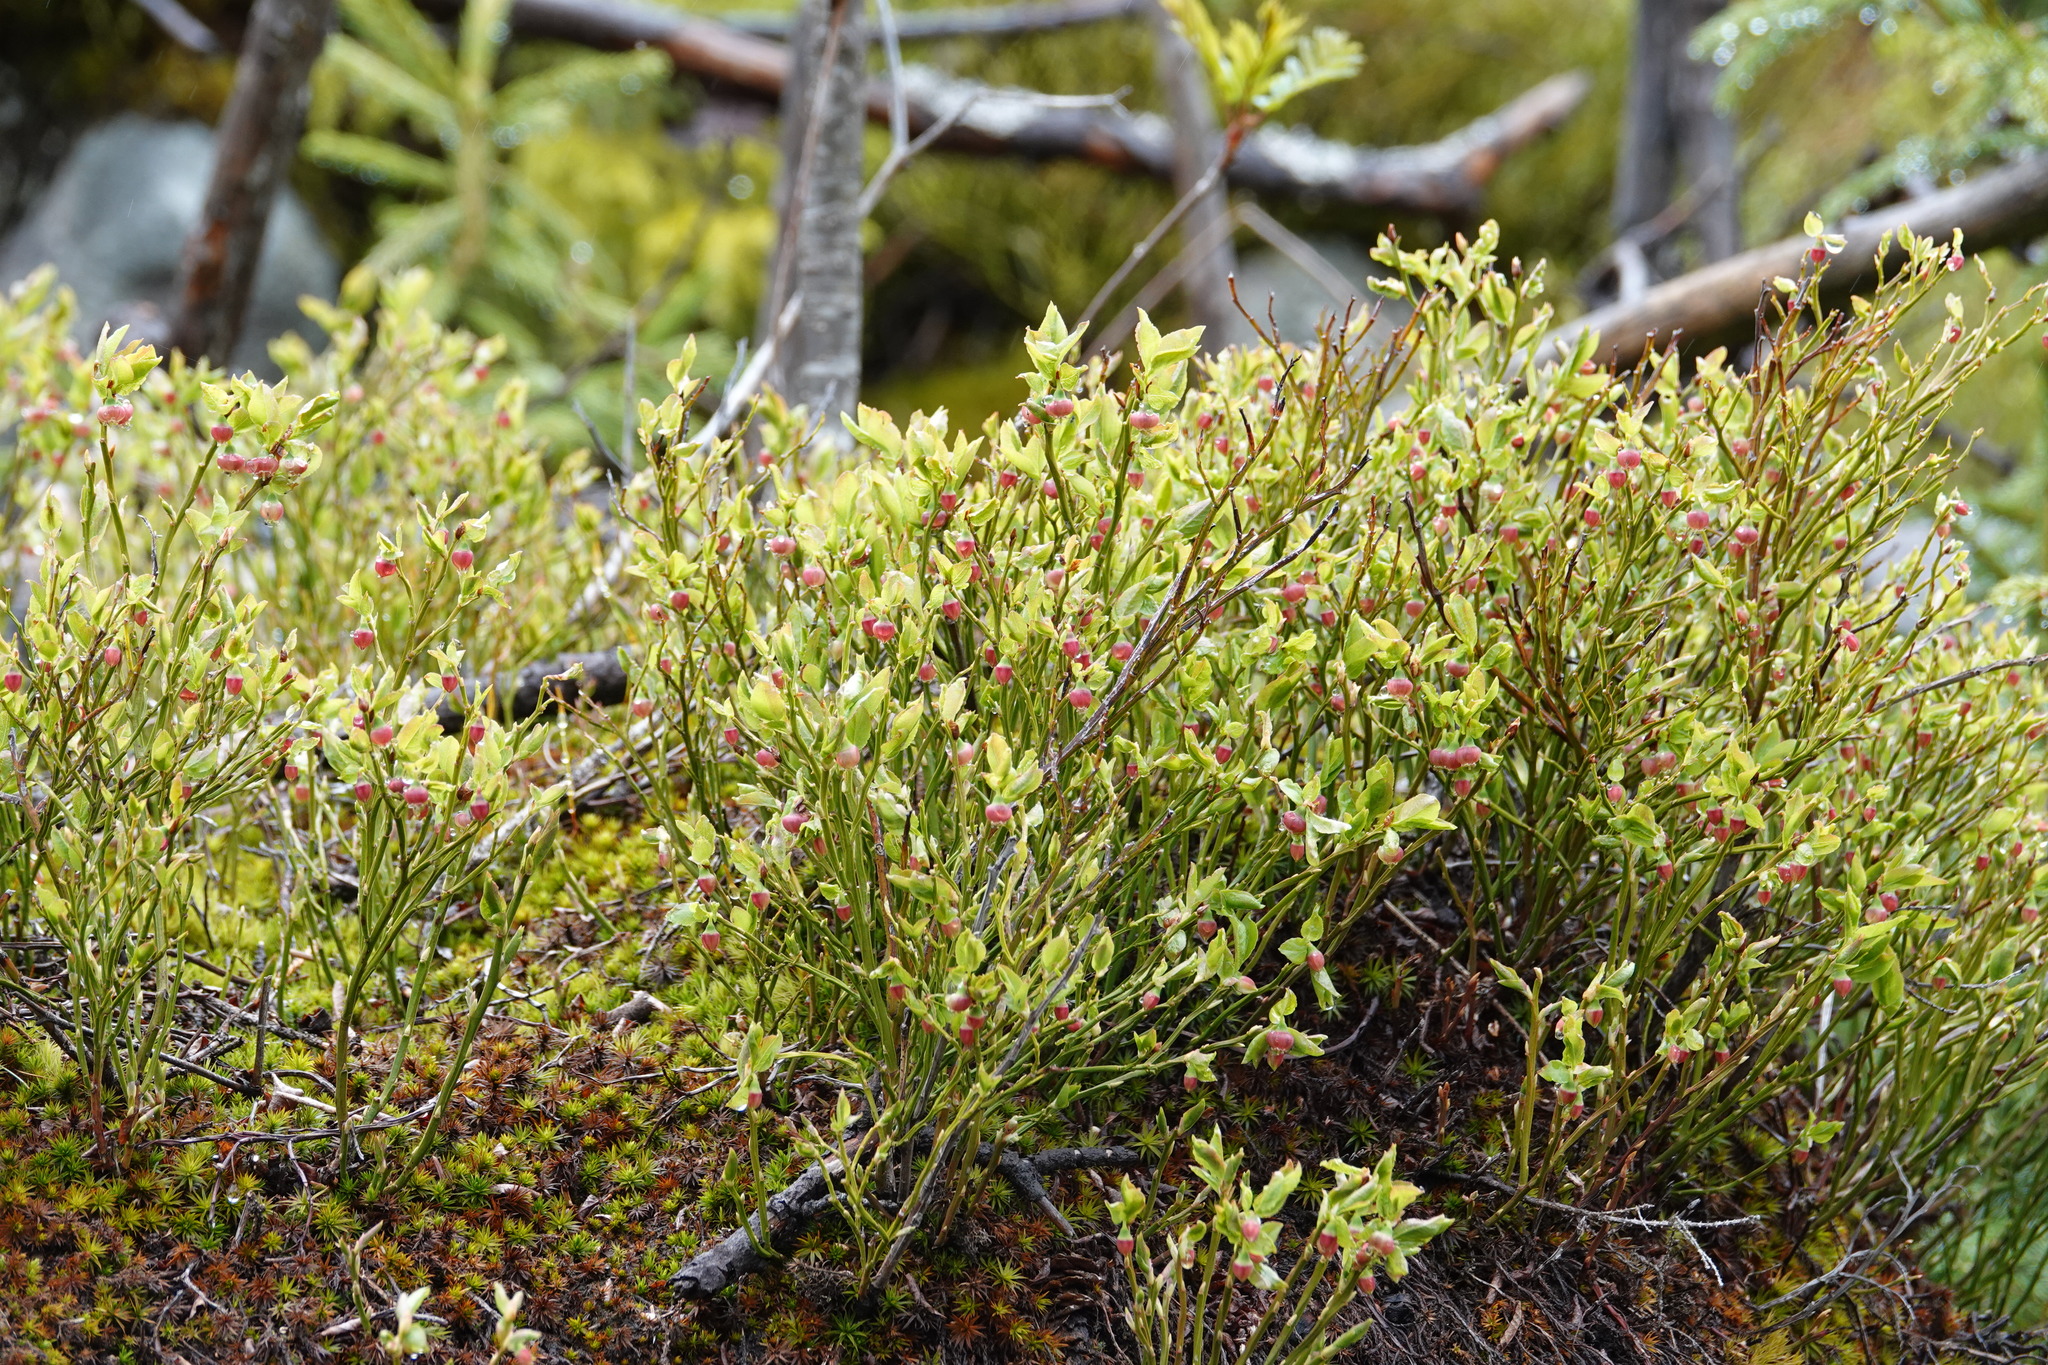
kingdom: Plantae
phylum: Tracheophyta
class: Magnoliopsida
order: Ericales
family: Ericaceae
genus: Vaccinium
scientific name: Vaccinium myrtillus
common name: Bilberry
